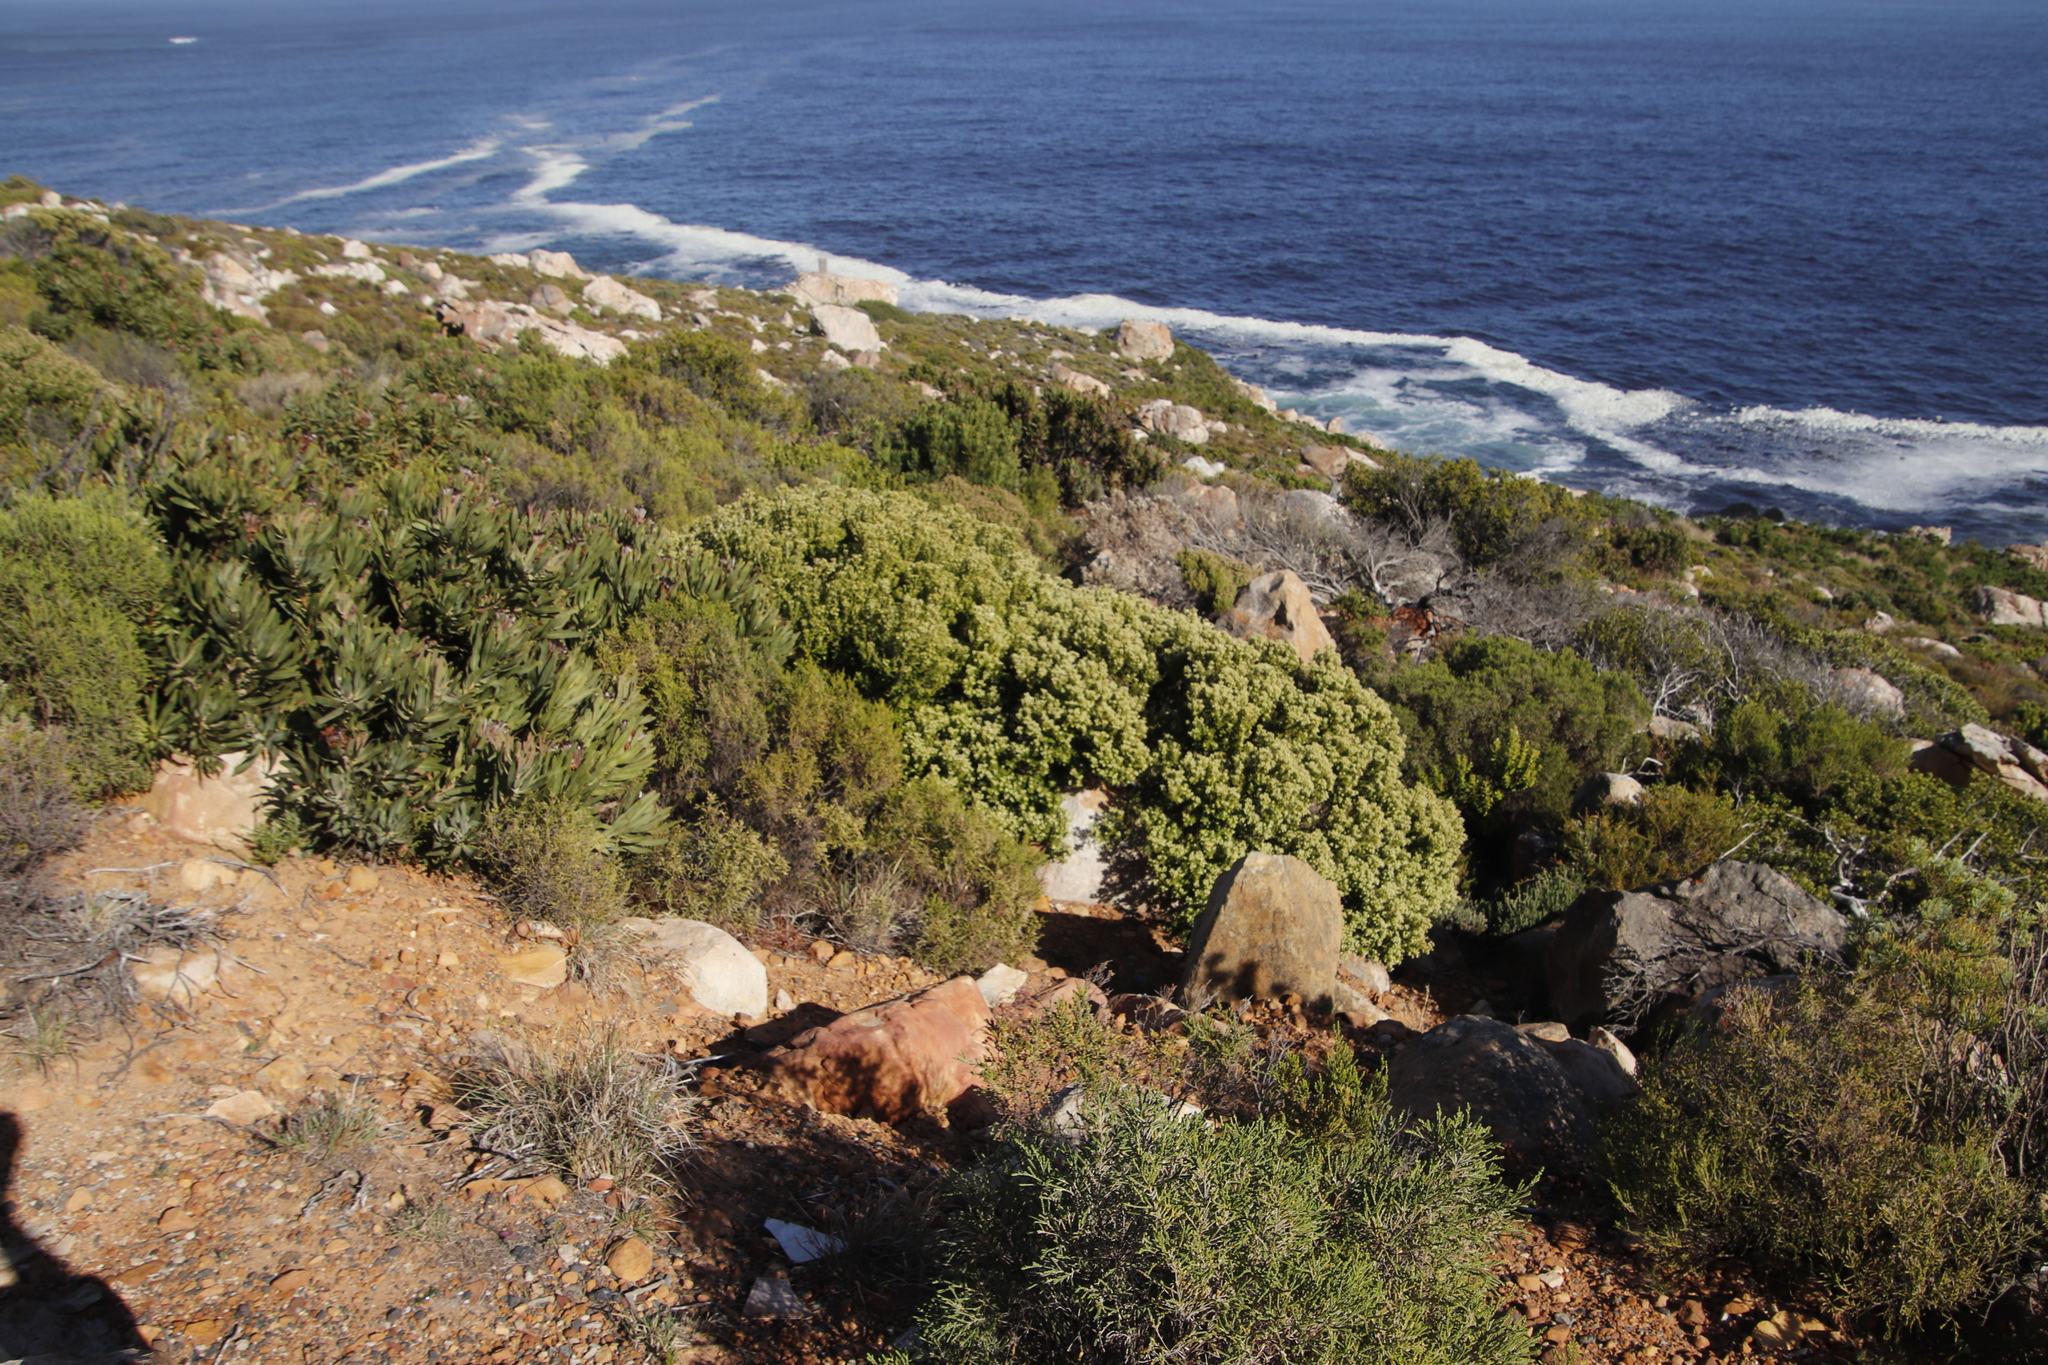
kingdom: Plantae
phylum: Tracheophyta
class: Magnoliopsida
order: Rosales
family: Rhamnaceae
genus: Phylica
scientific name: Phylica buxifolia
